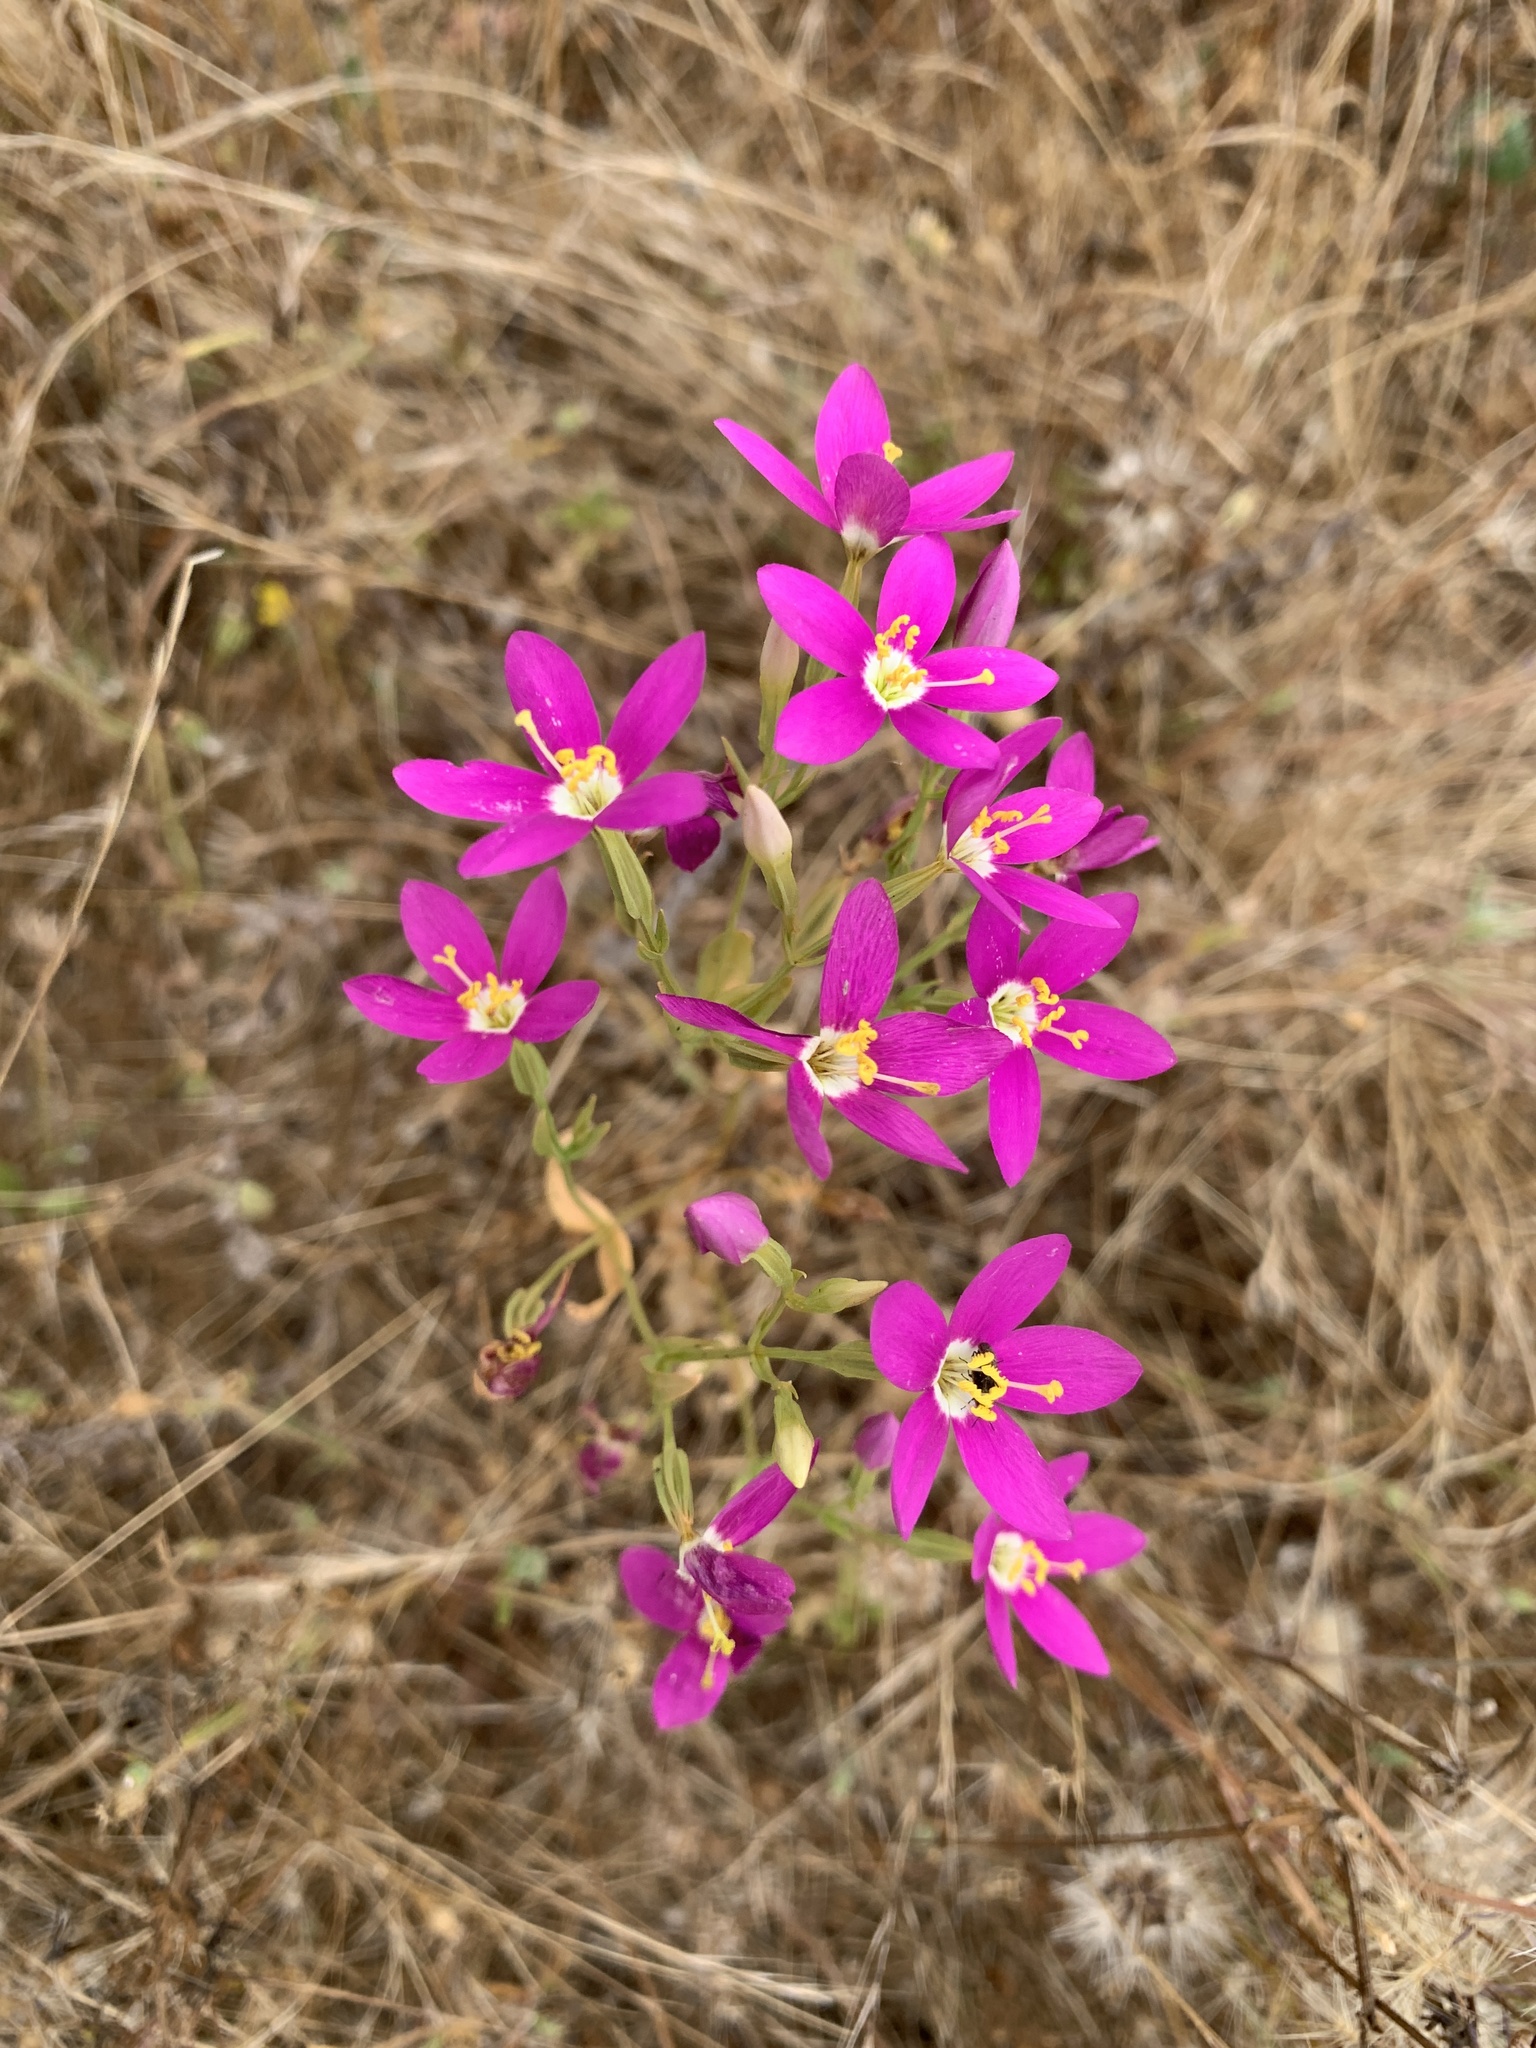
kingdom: Plantae
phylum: Tracheophyta
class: Magnoliopsida
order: Gentianales
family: Gentianaceae
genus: Zeltnera
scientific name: Zeltnera venusta
